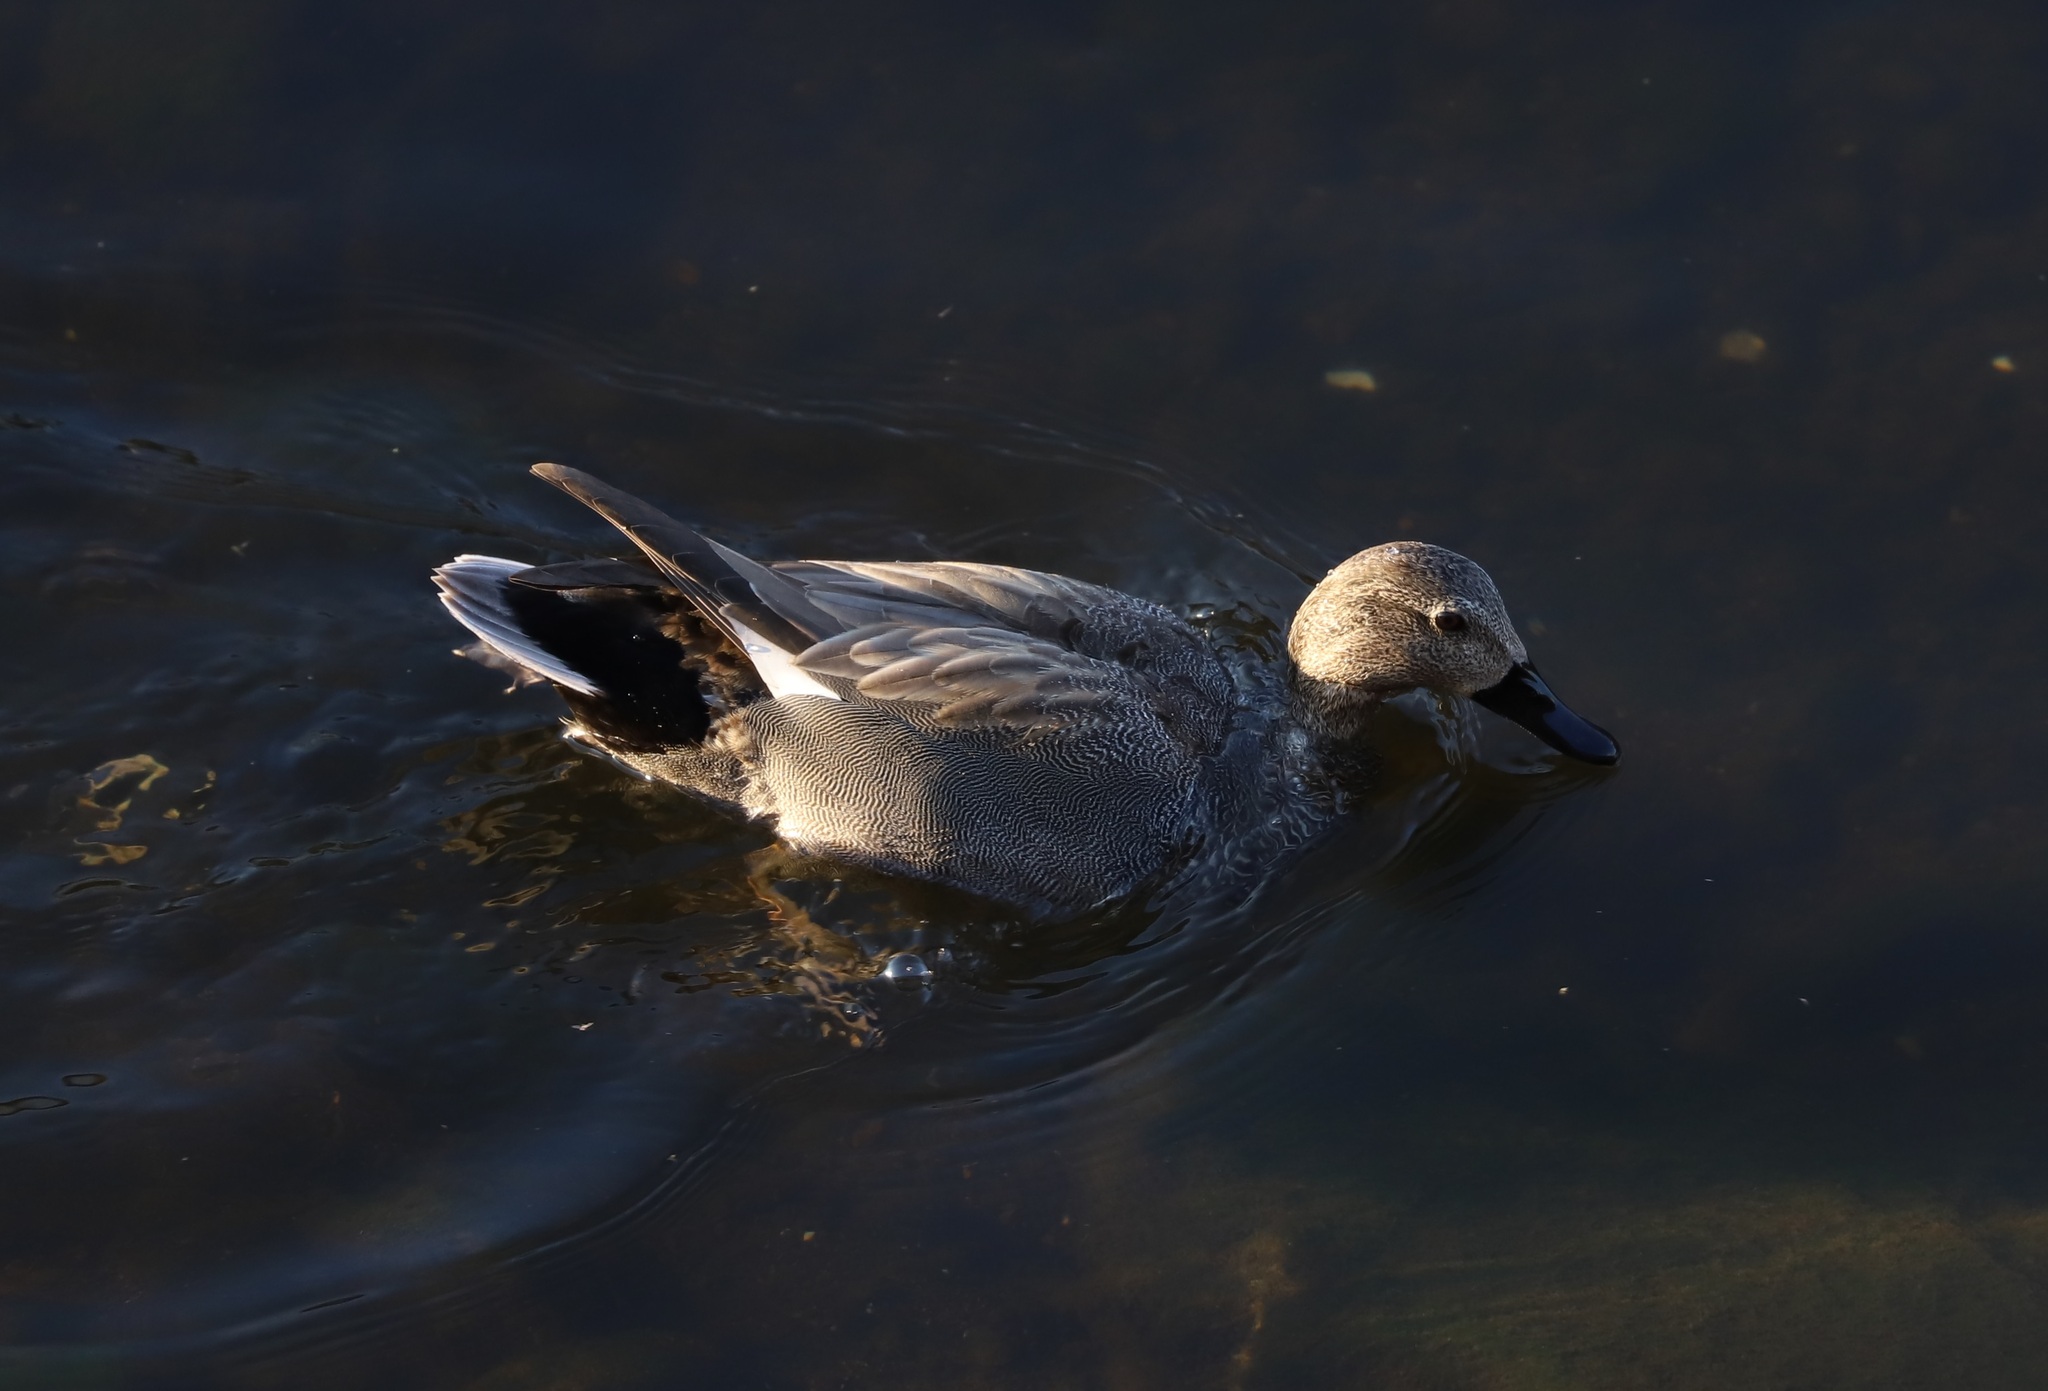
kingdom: Animalia
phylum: Chordata
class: Aves
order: Anseriformes
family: Anatidae
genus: Mareca
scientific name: Mareca strepera
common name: Gadwall
